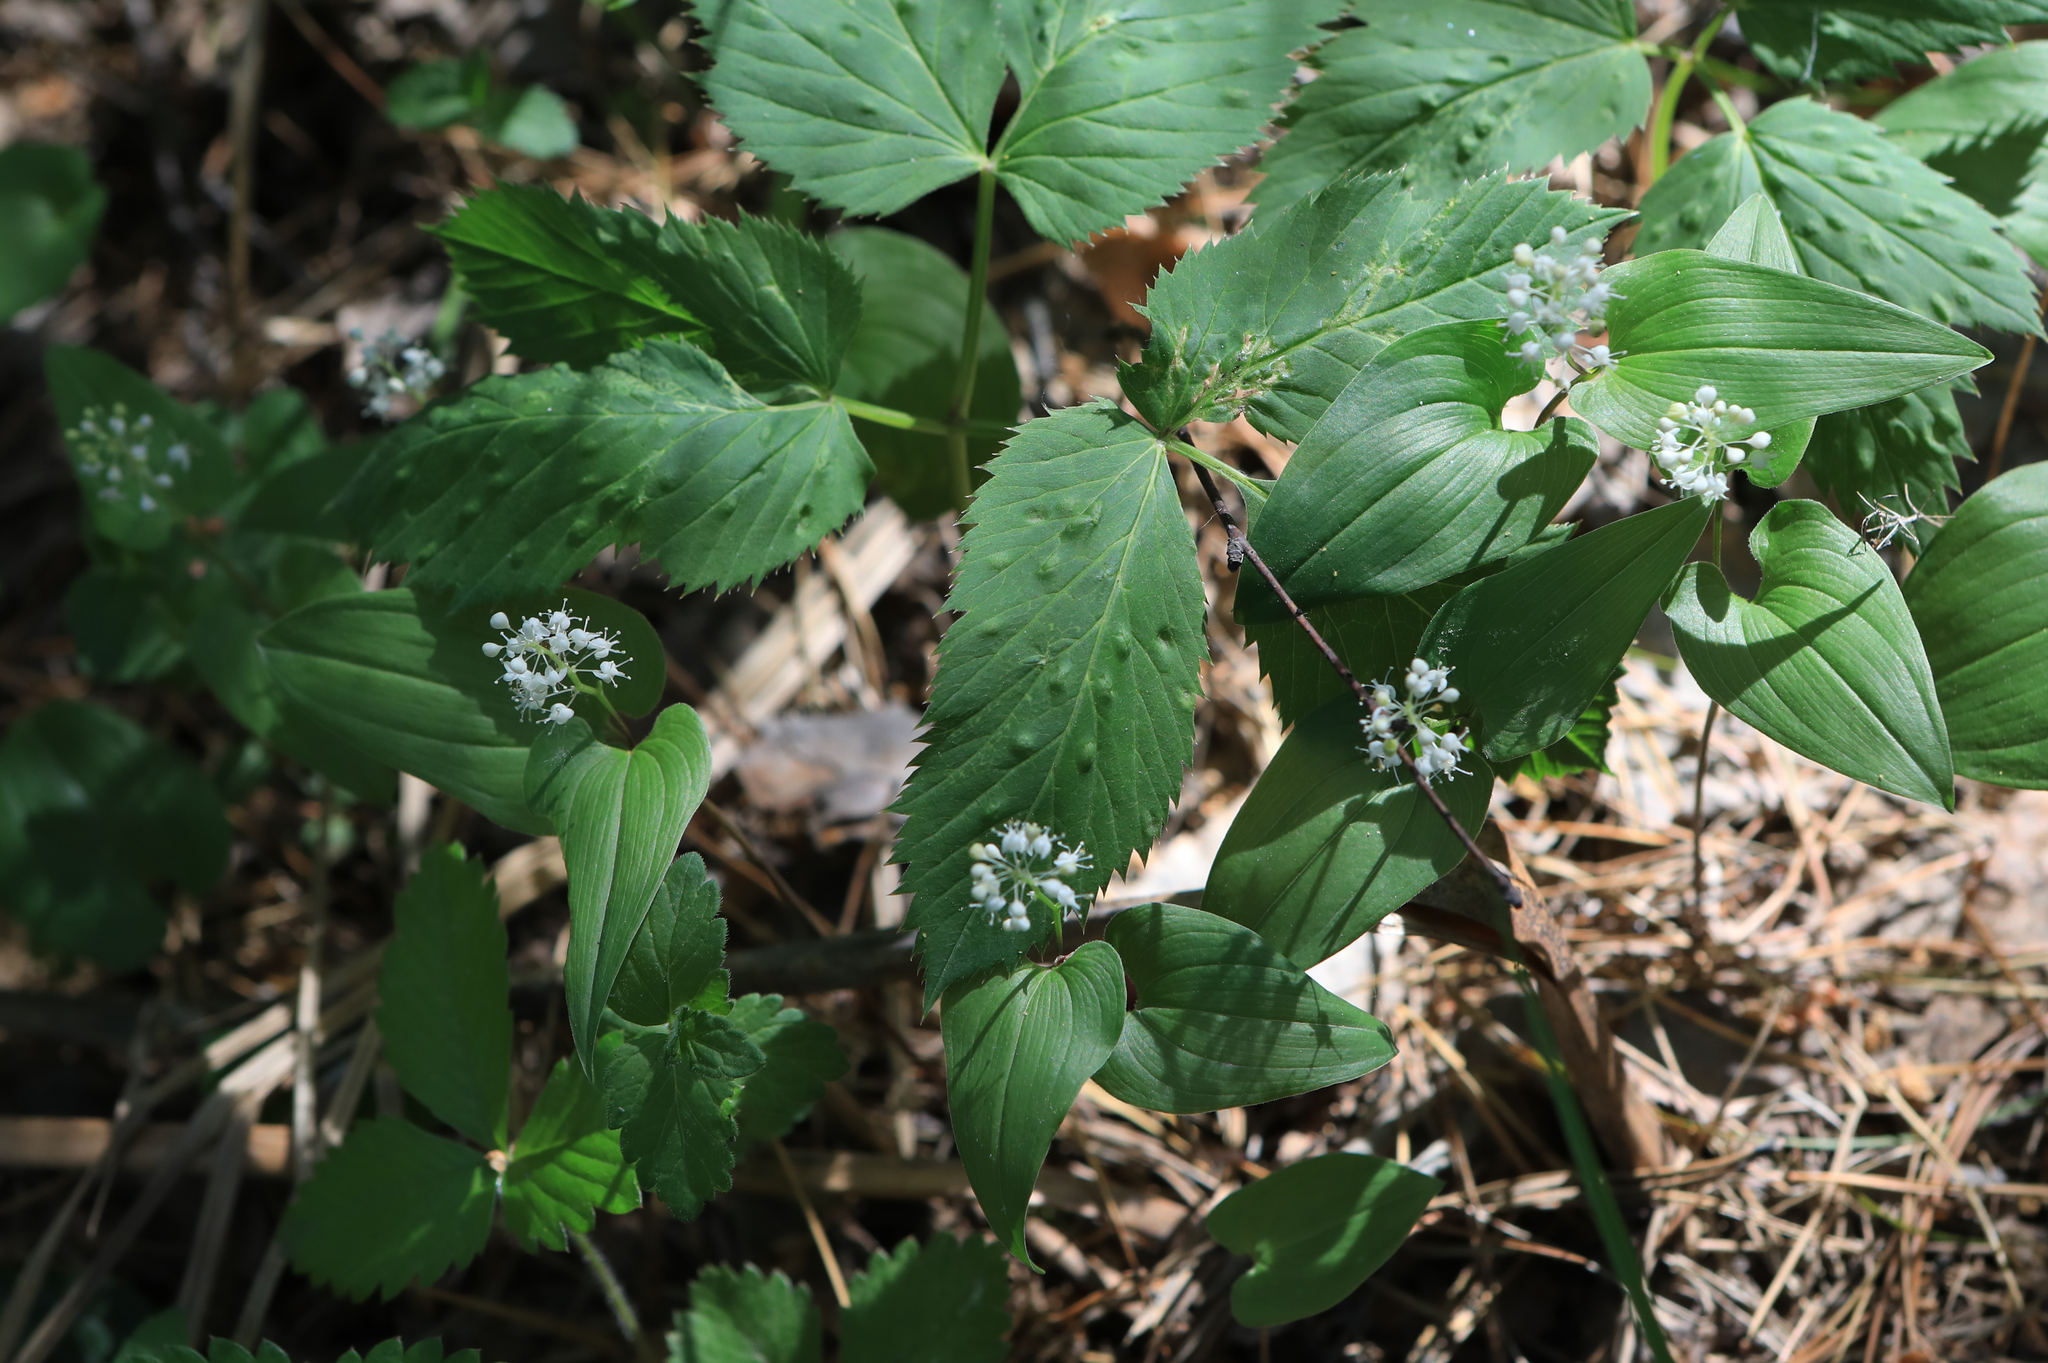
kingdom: Plantae
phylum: Tracheophyta
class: Liliopsida
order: Asparagales
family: Asparagaceae
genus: Maianthemum
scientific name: Maianthemum bifolium
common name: May lily
